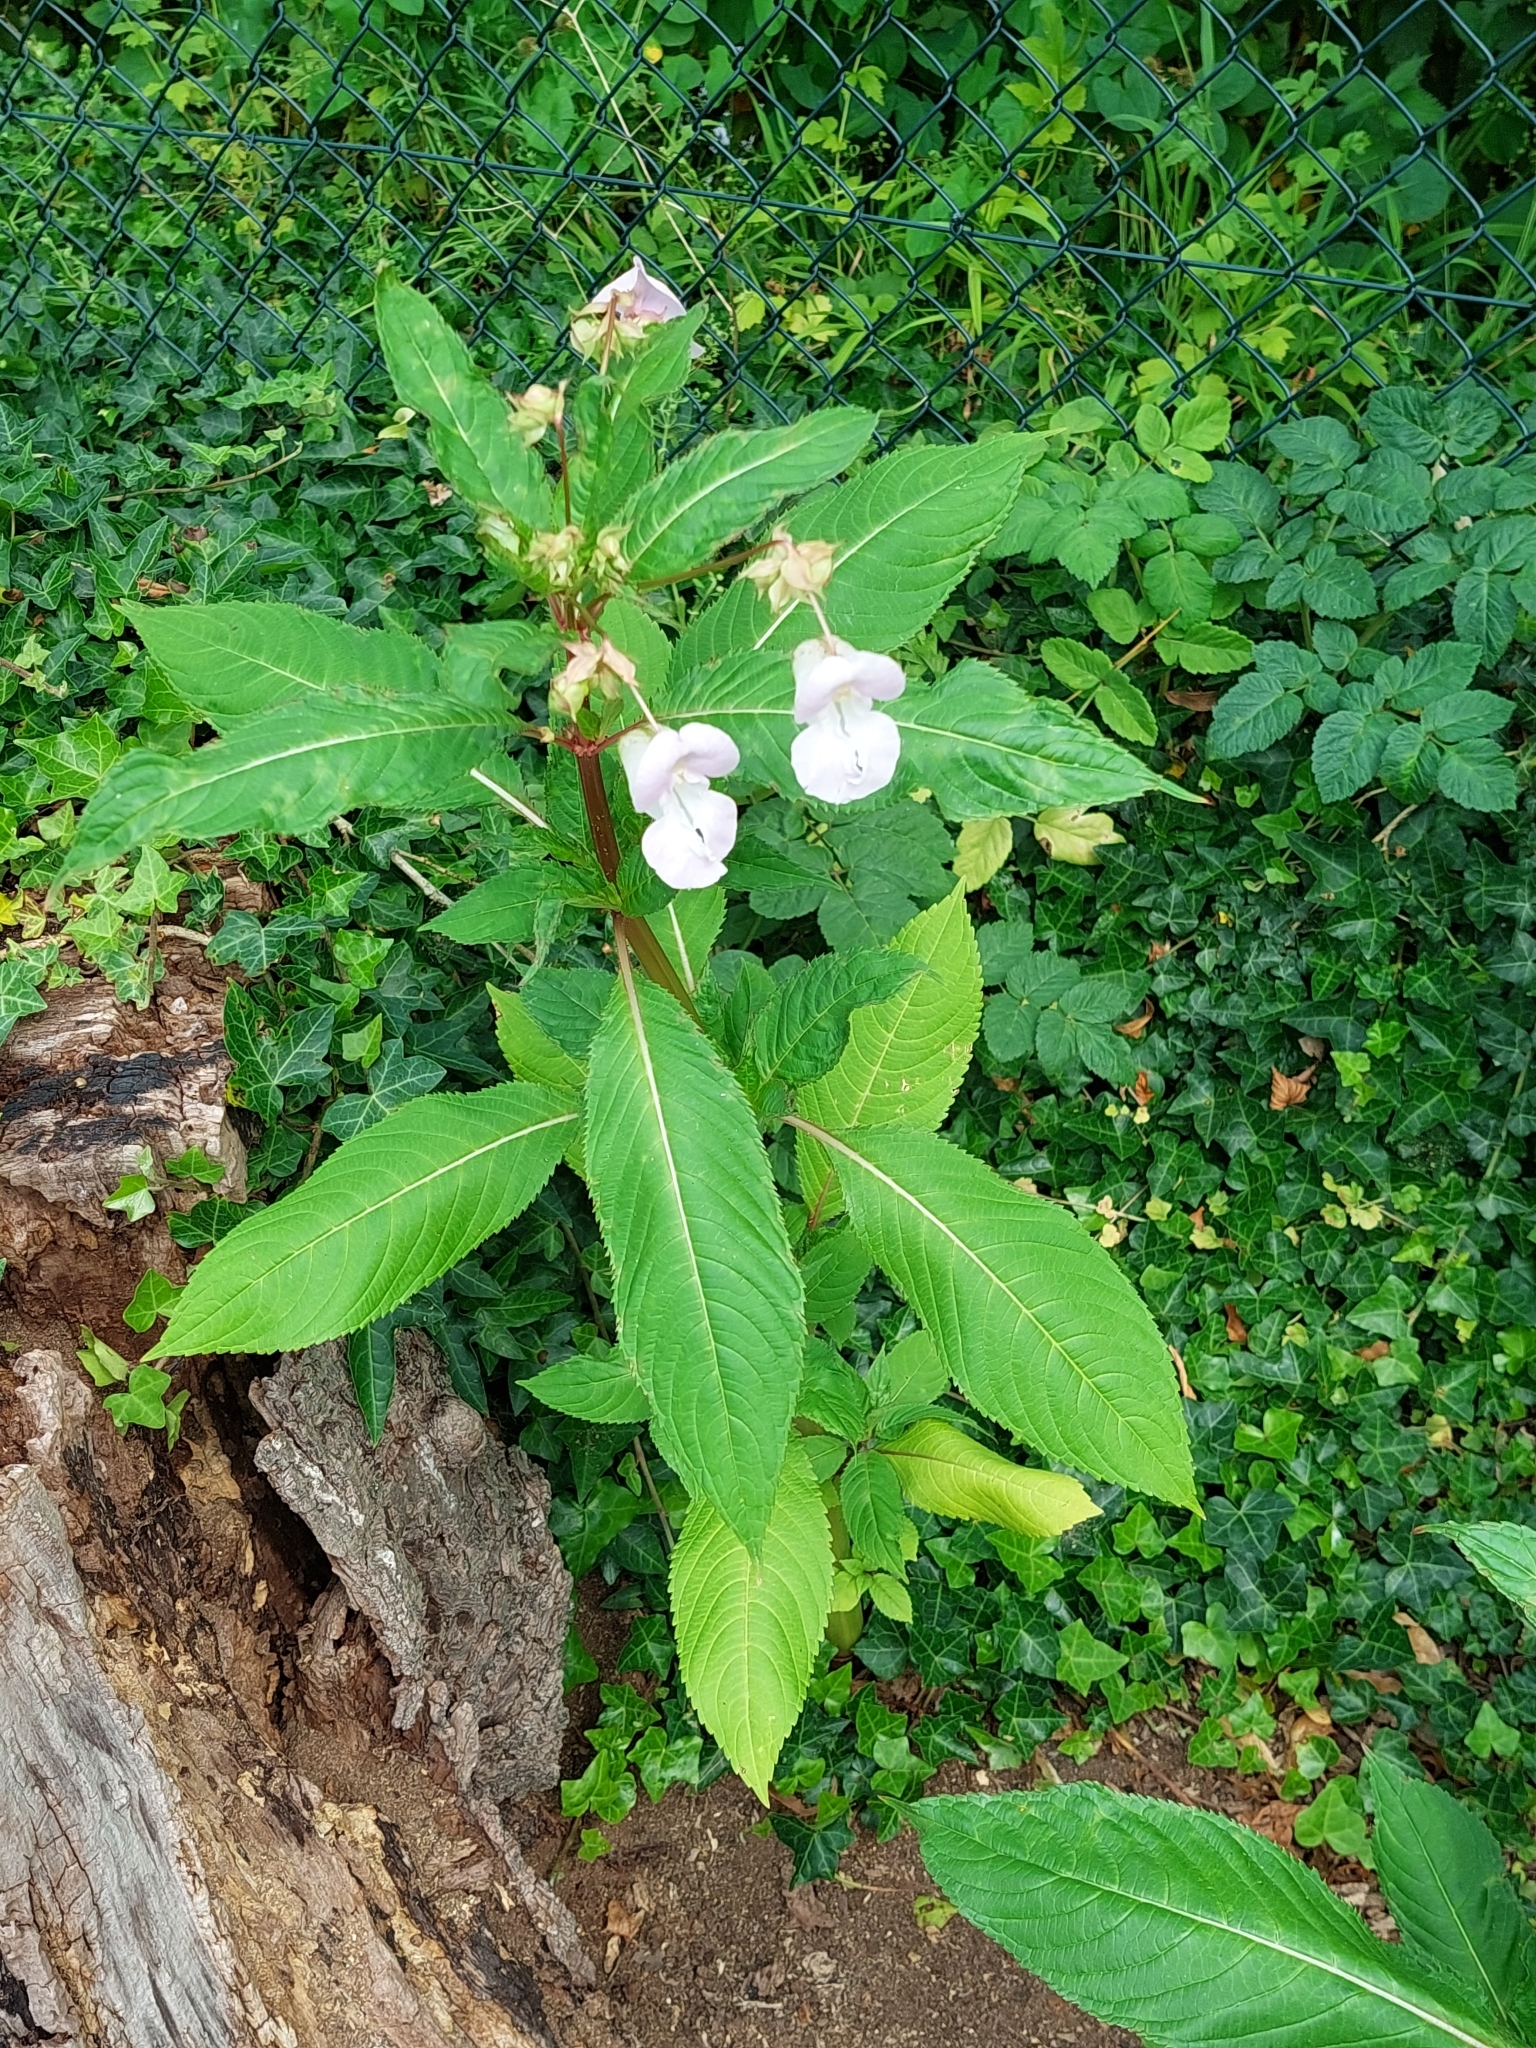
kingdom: Plantae
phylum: Tracheophyta
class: Magnoliopsida
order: Ericales
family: Balsaminaceae
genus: Impatiens
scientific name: Impatiens glandulifera
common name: Himalayan balsam
